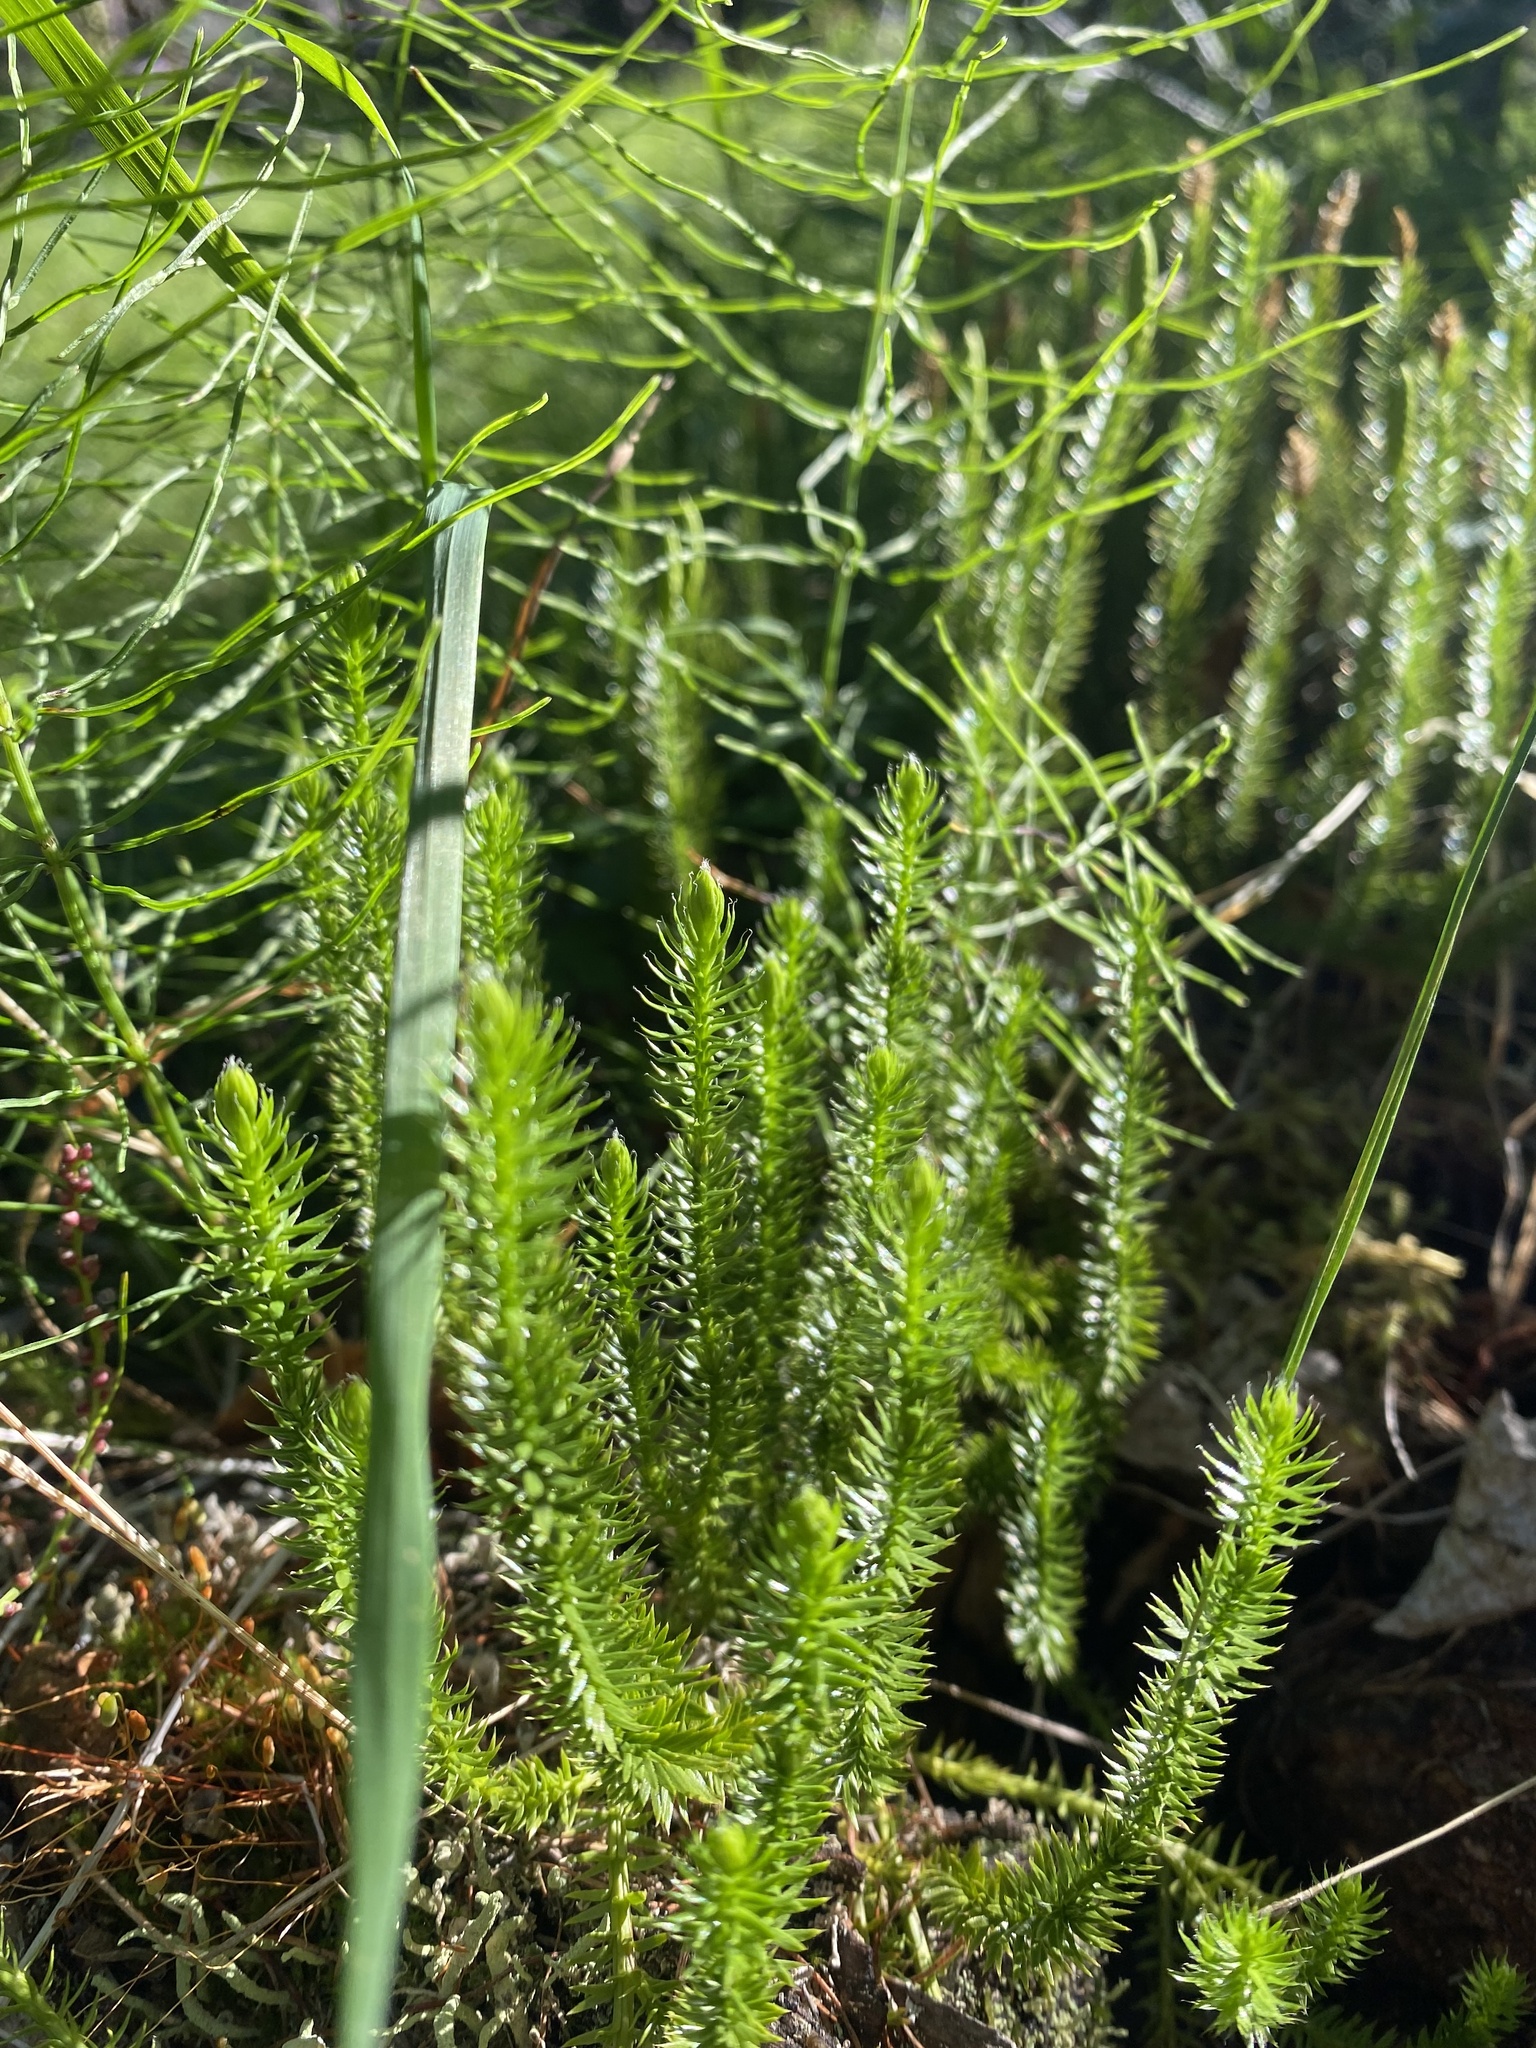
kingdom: Plantae
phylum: Tracheophyta
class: Lycopodiopsida
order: Lycopodiales
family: Lycopodiaceae
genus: Spinulum
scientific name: Spinulum annotinum
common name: Interrupted club-moss
